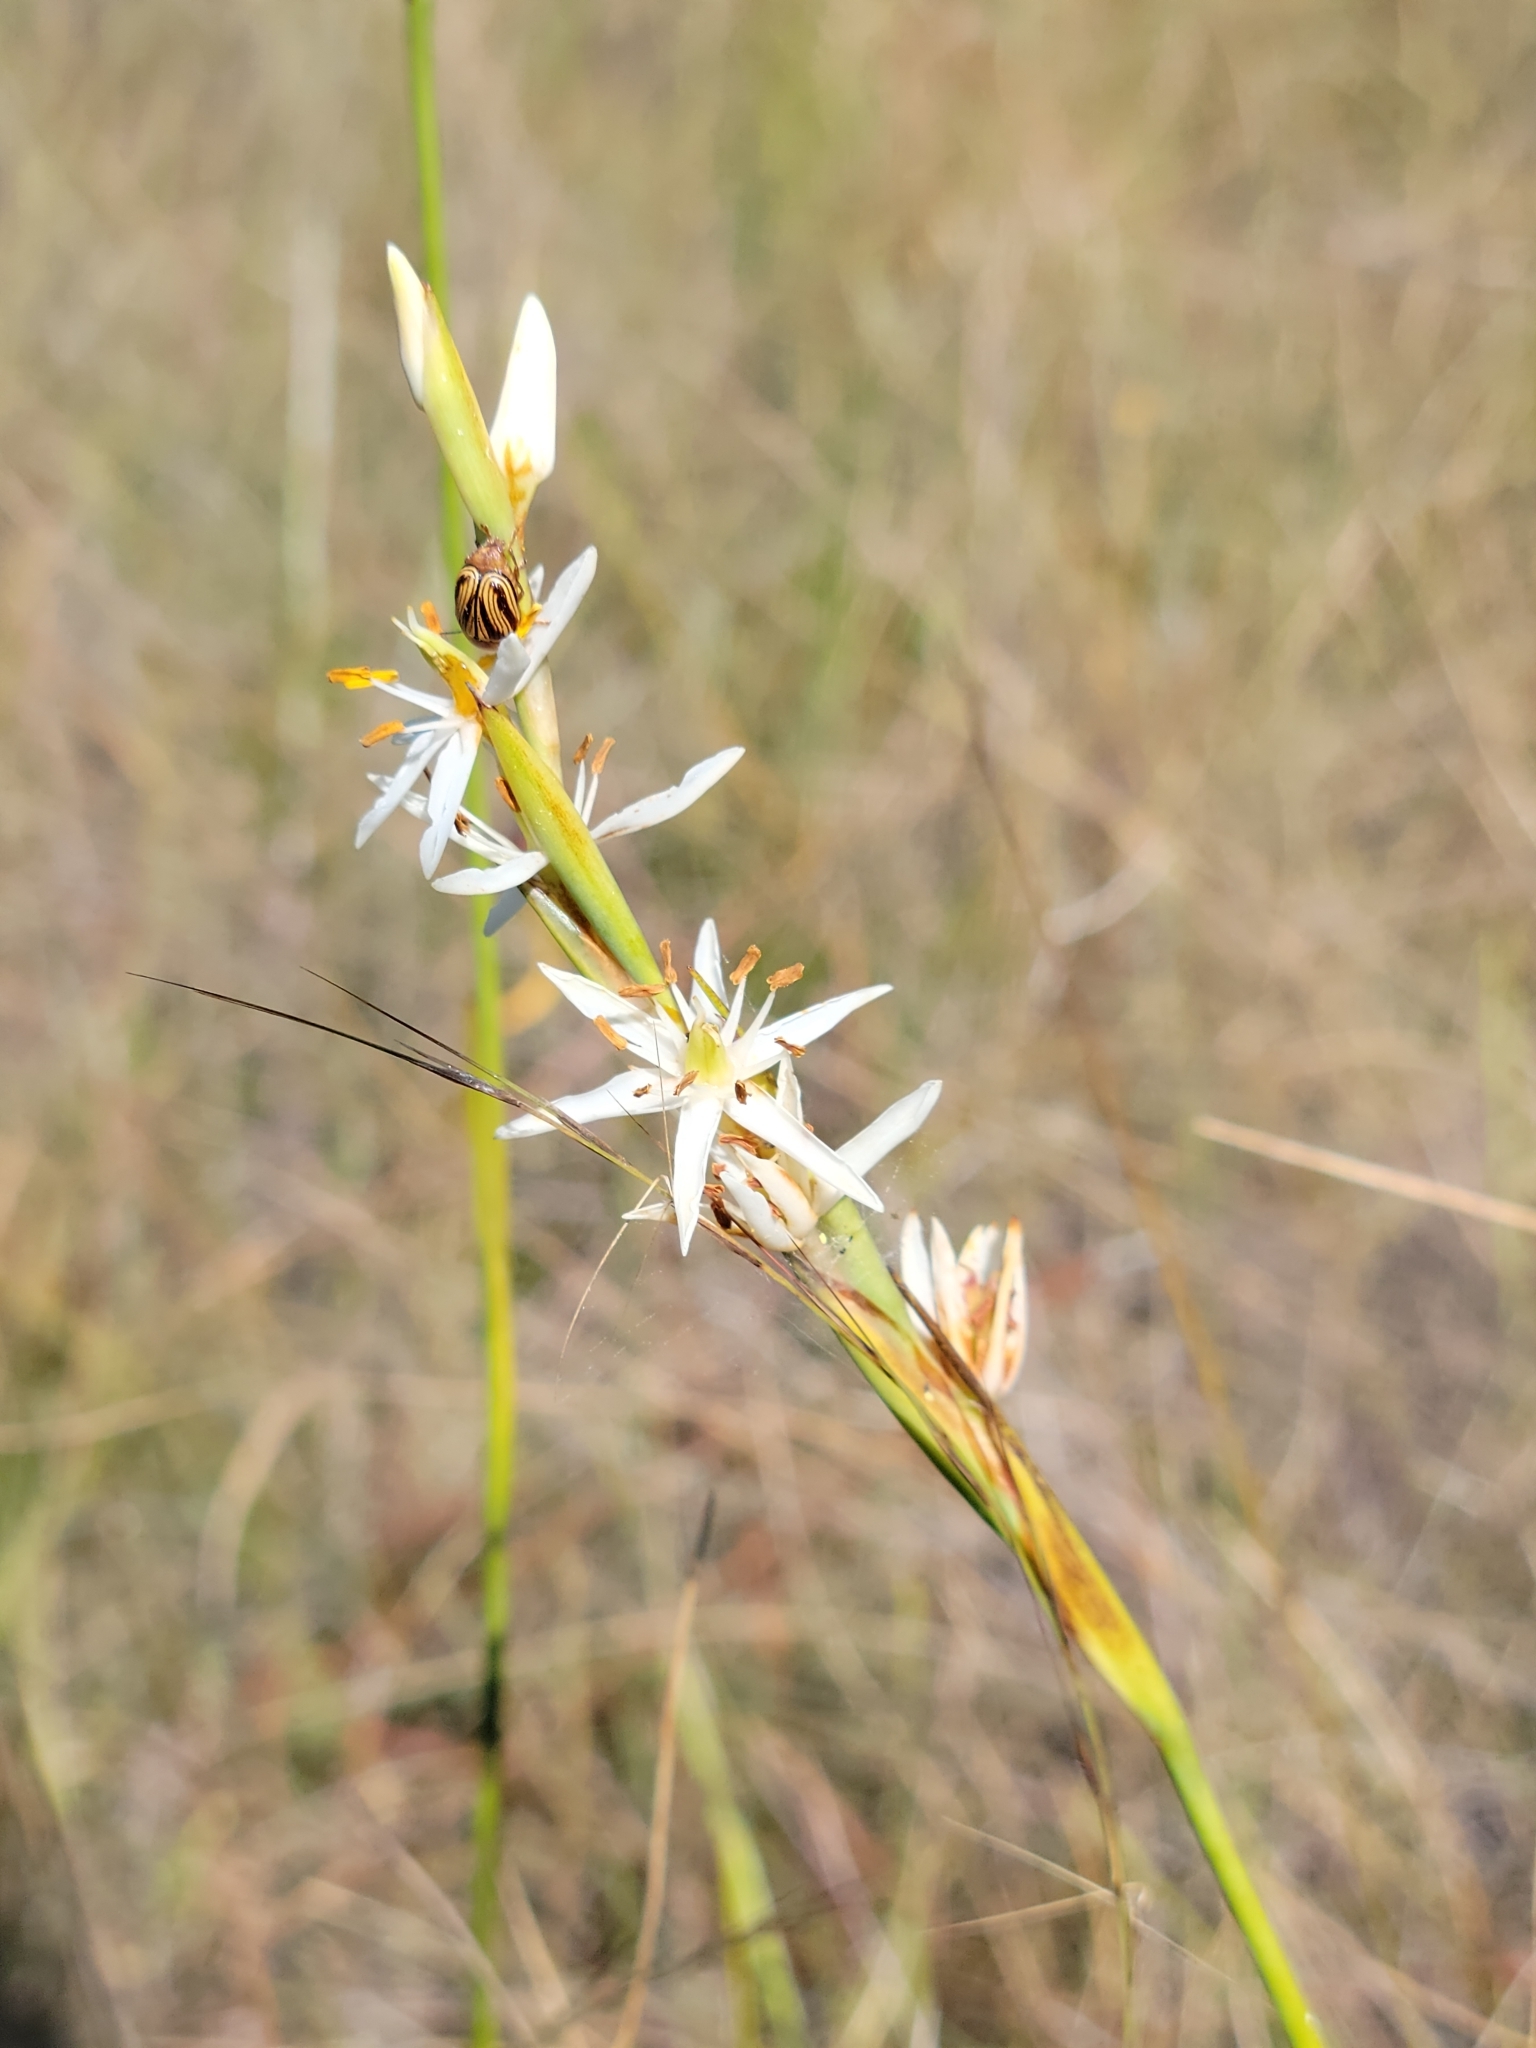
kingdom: Plantae
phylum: Tracheophyta
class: Liliopsida
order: Alismatales
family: Tofieldiaceae
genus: Pleea
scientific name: Pleea tenuifolia
